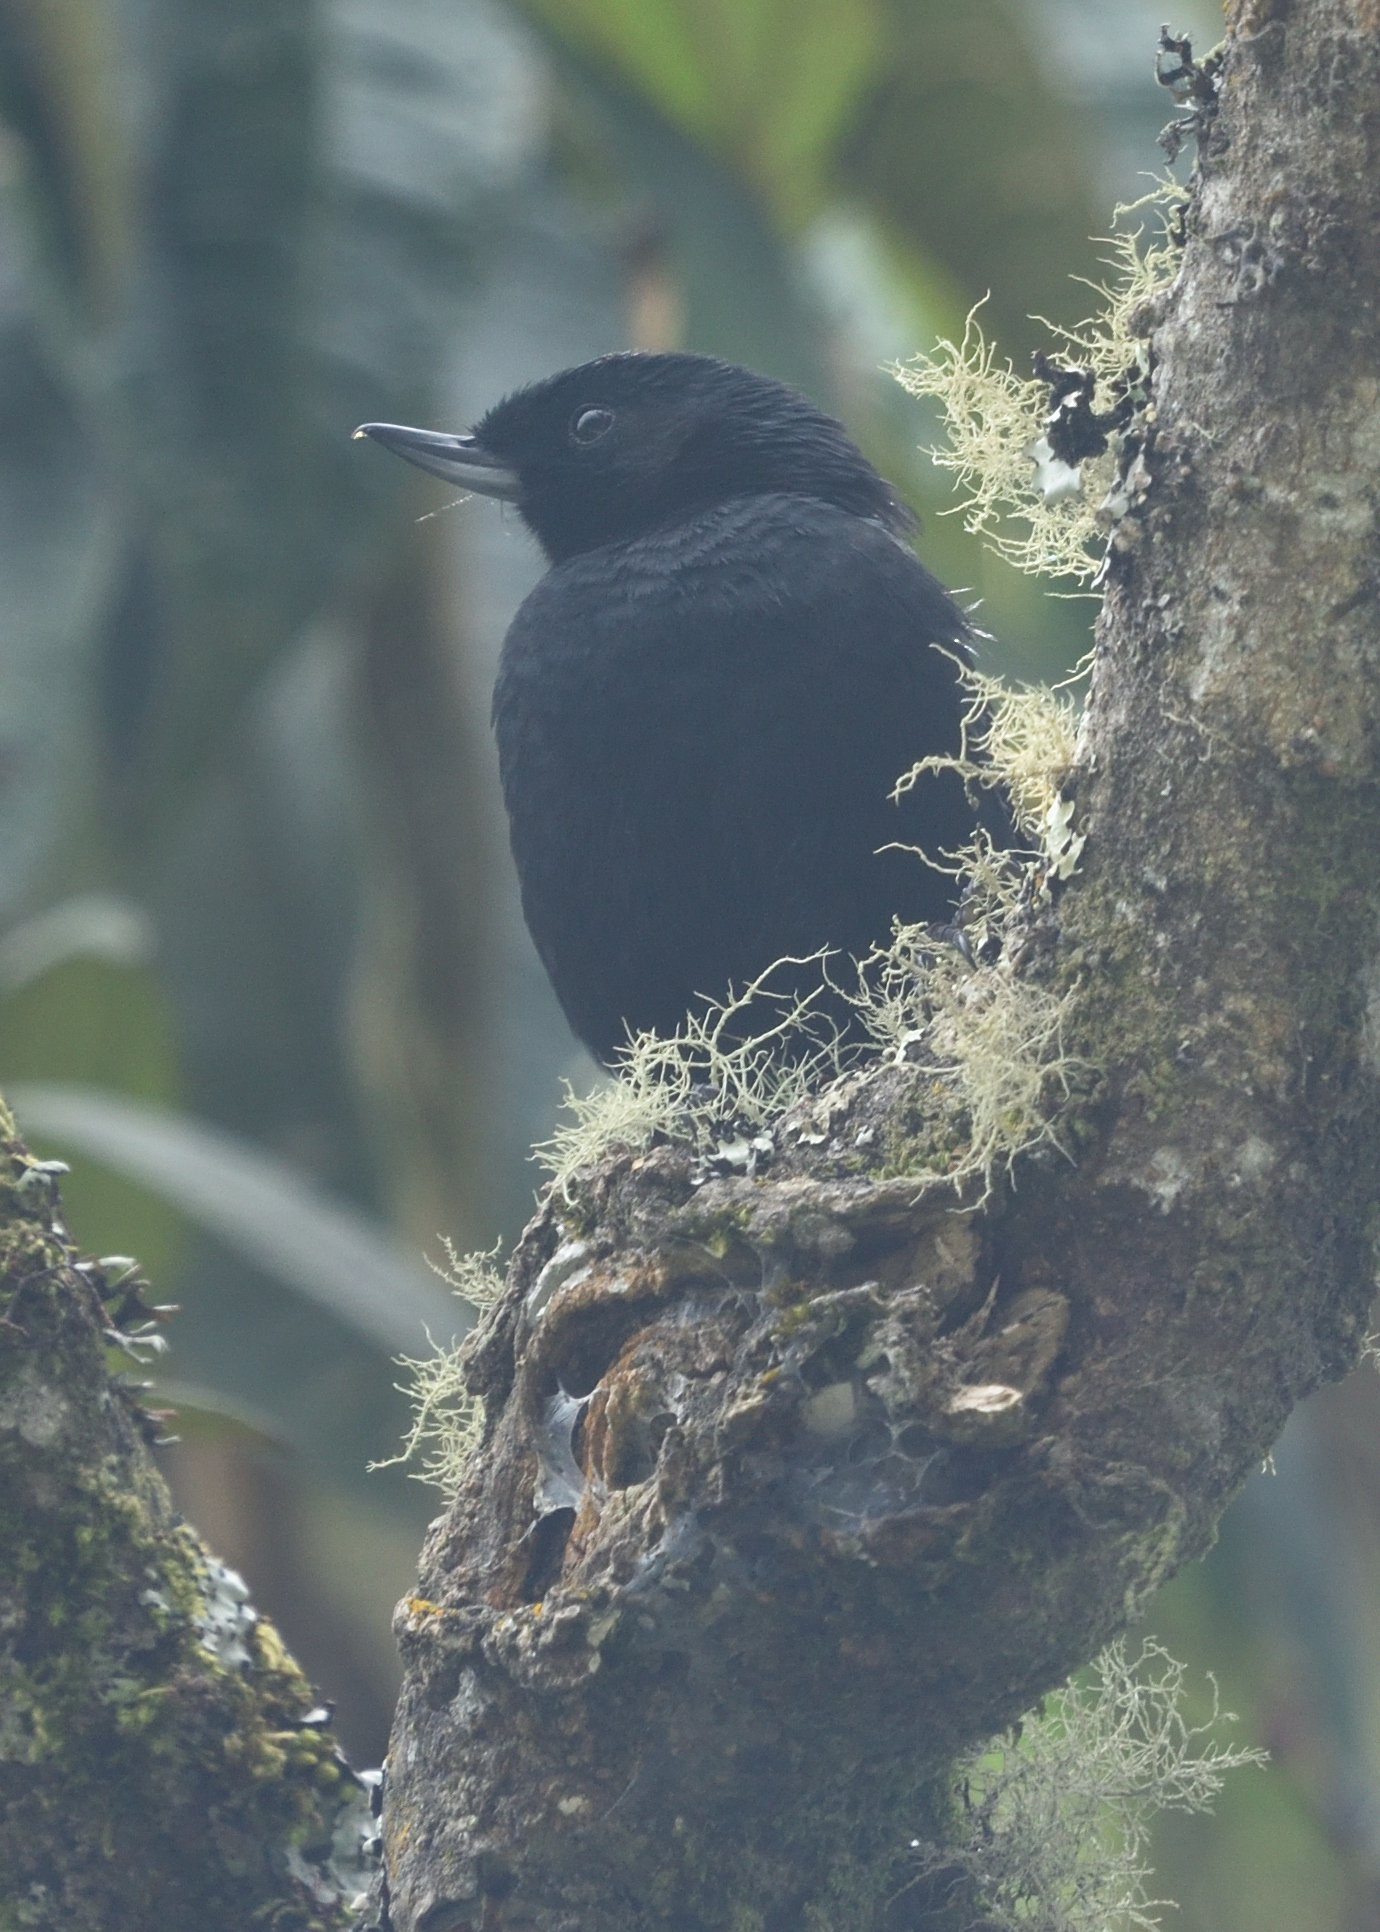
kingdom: Animalia
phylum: Chordata
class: Aves
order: Passeriformes
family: Thraupidae
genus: Diglossa
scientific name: Diglossa humeralis
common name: Black flowerpiercer
